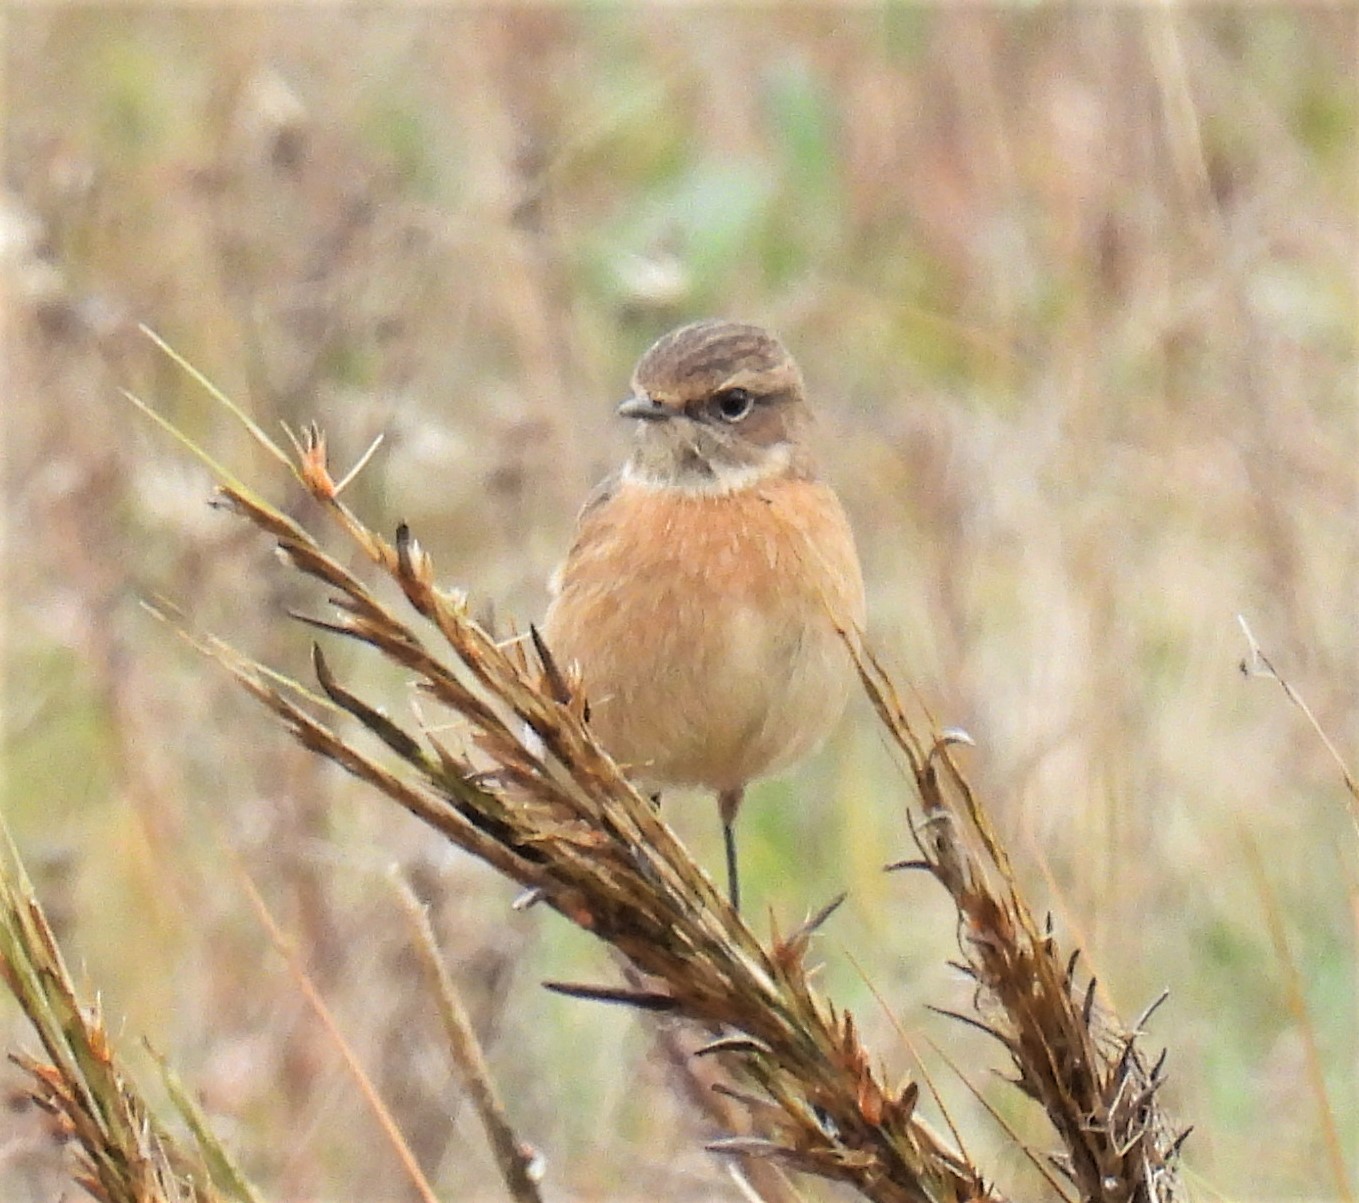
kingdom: Animalia
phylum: Chordata
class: Aves
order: Passeriformes
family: Muscicapidae
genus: Saxicola
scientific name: Saxicola rubicola
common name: European stonechat
